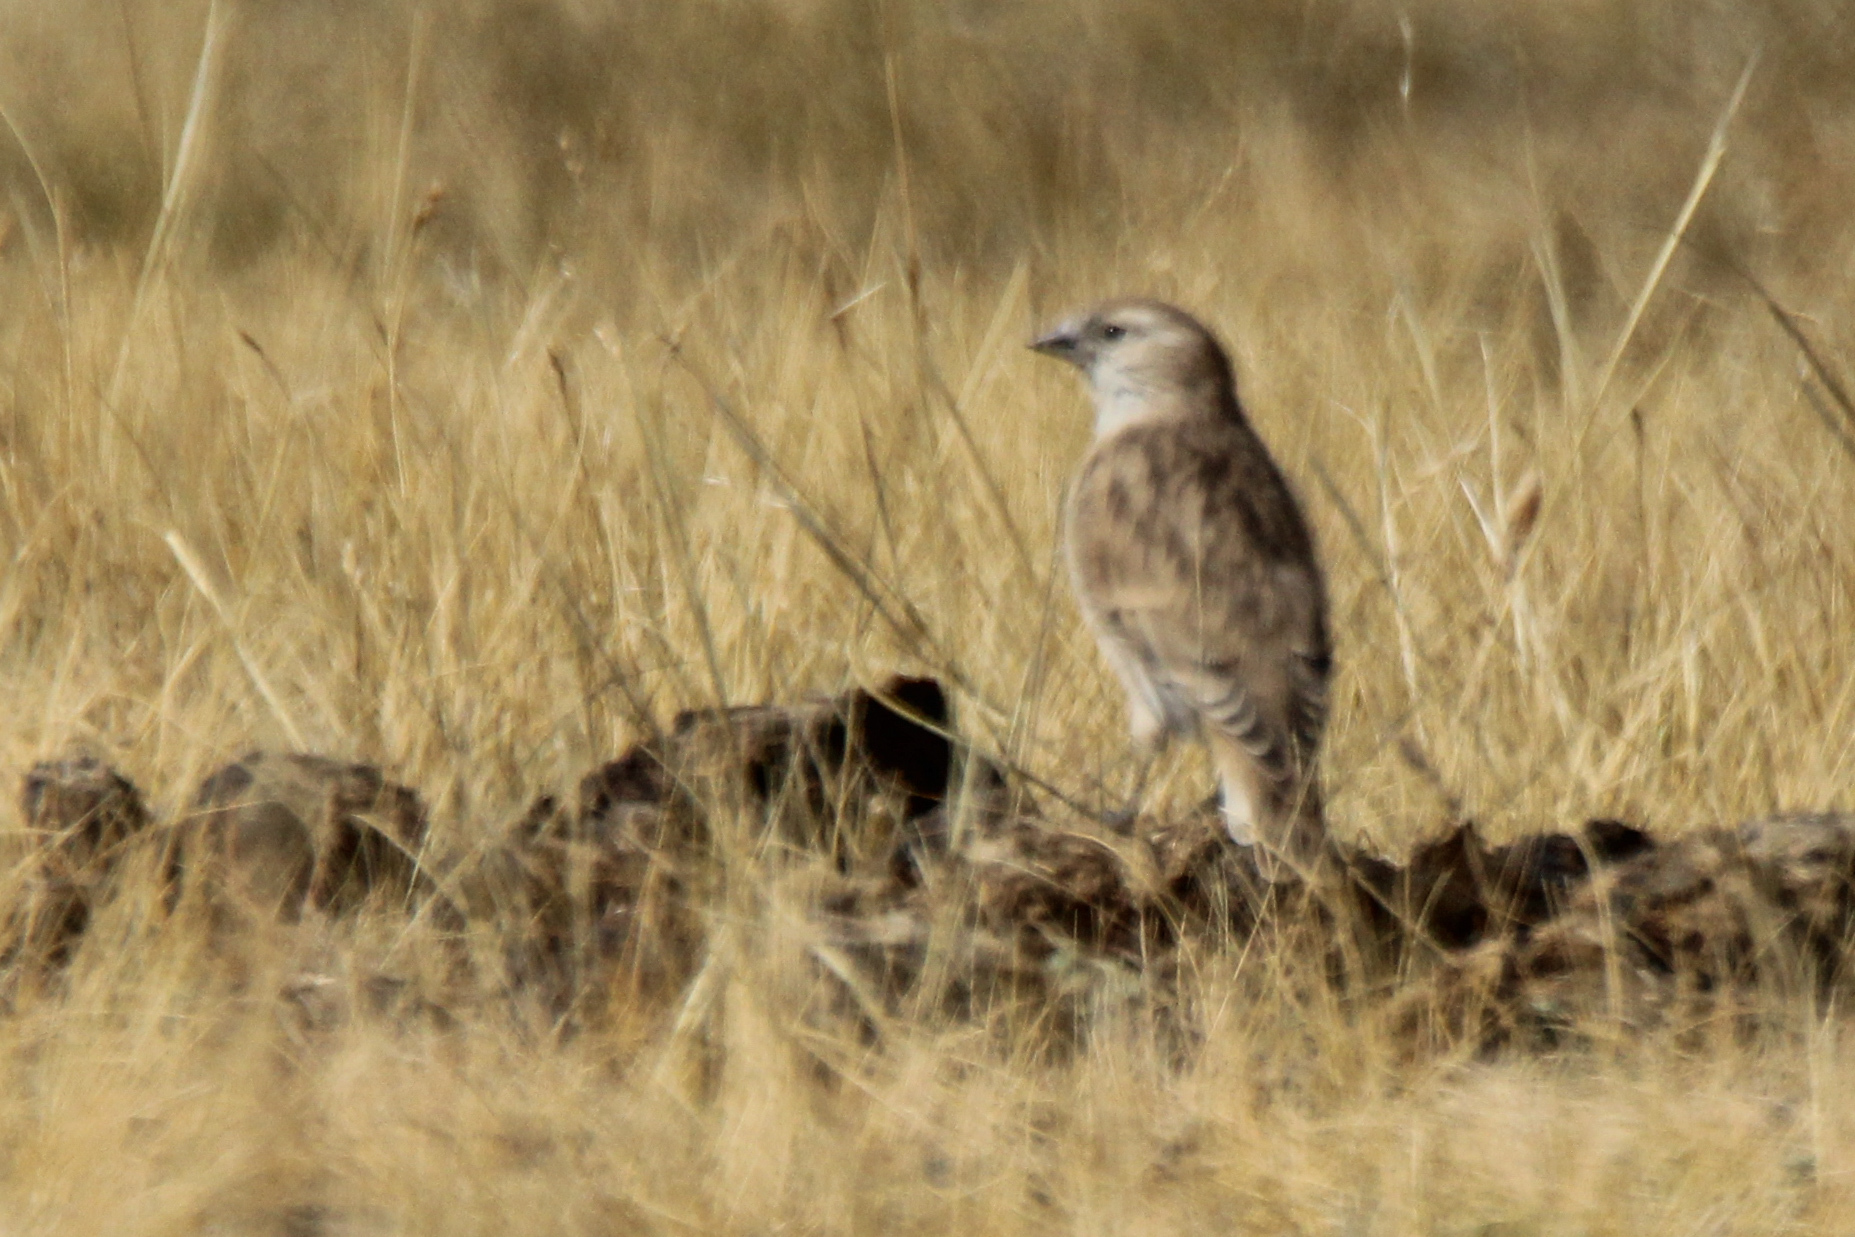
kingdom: Animalia
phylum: Chordata
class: Aves
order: Passeriformes
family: Passeridae
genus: Pyrgilauda
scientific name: Pyrgilauda davidiana
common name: Pere david's snowfinch
